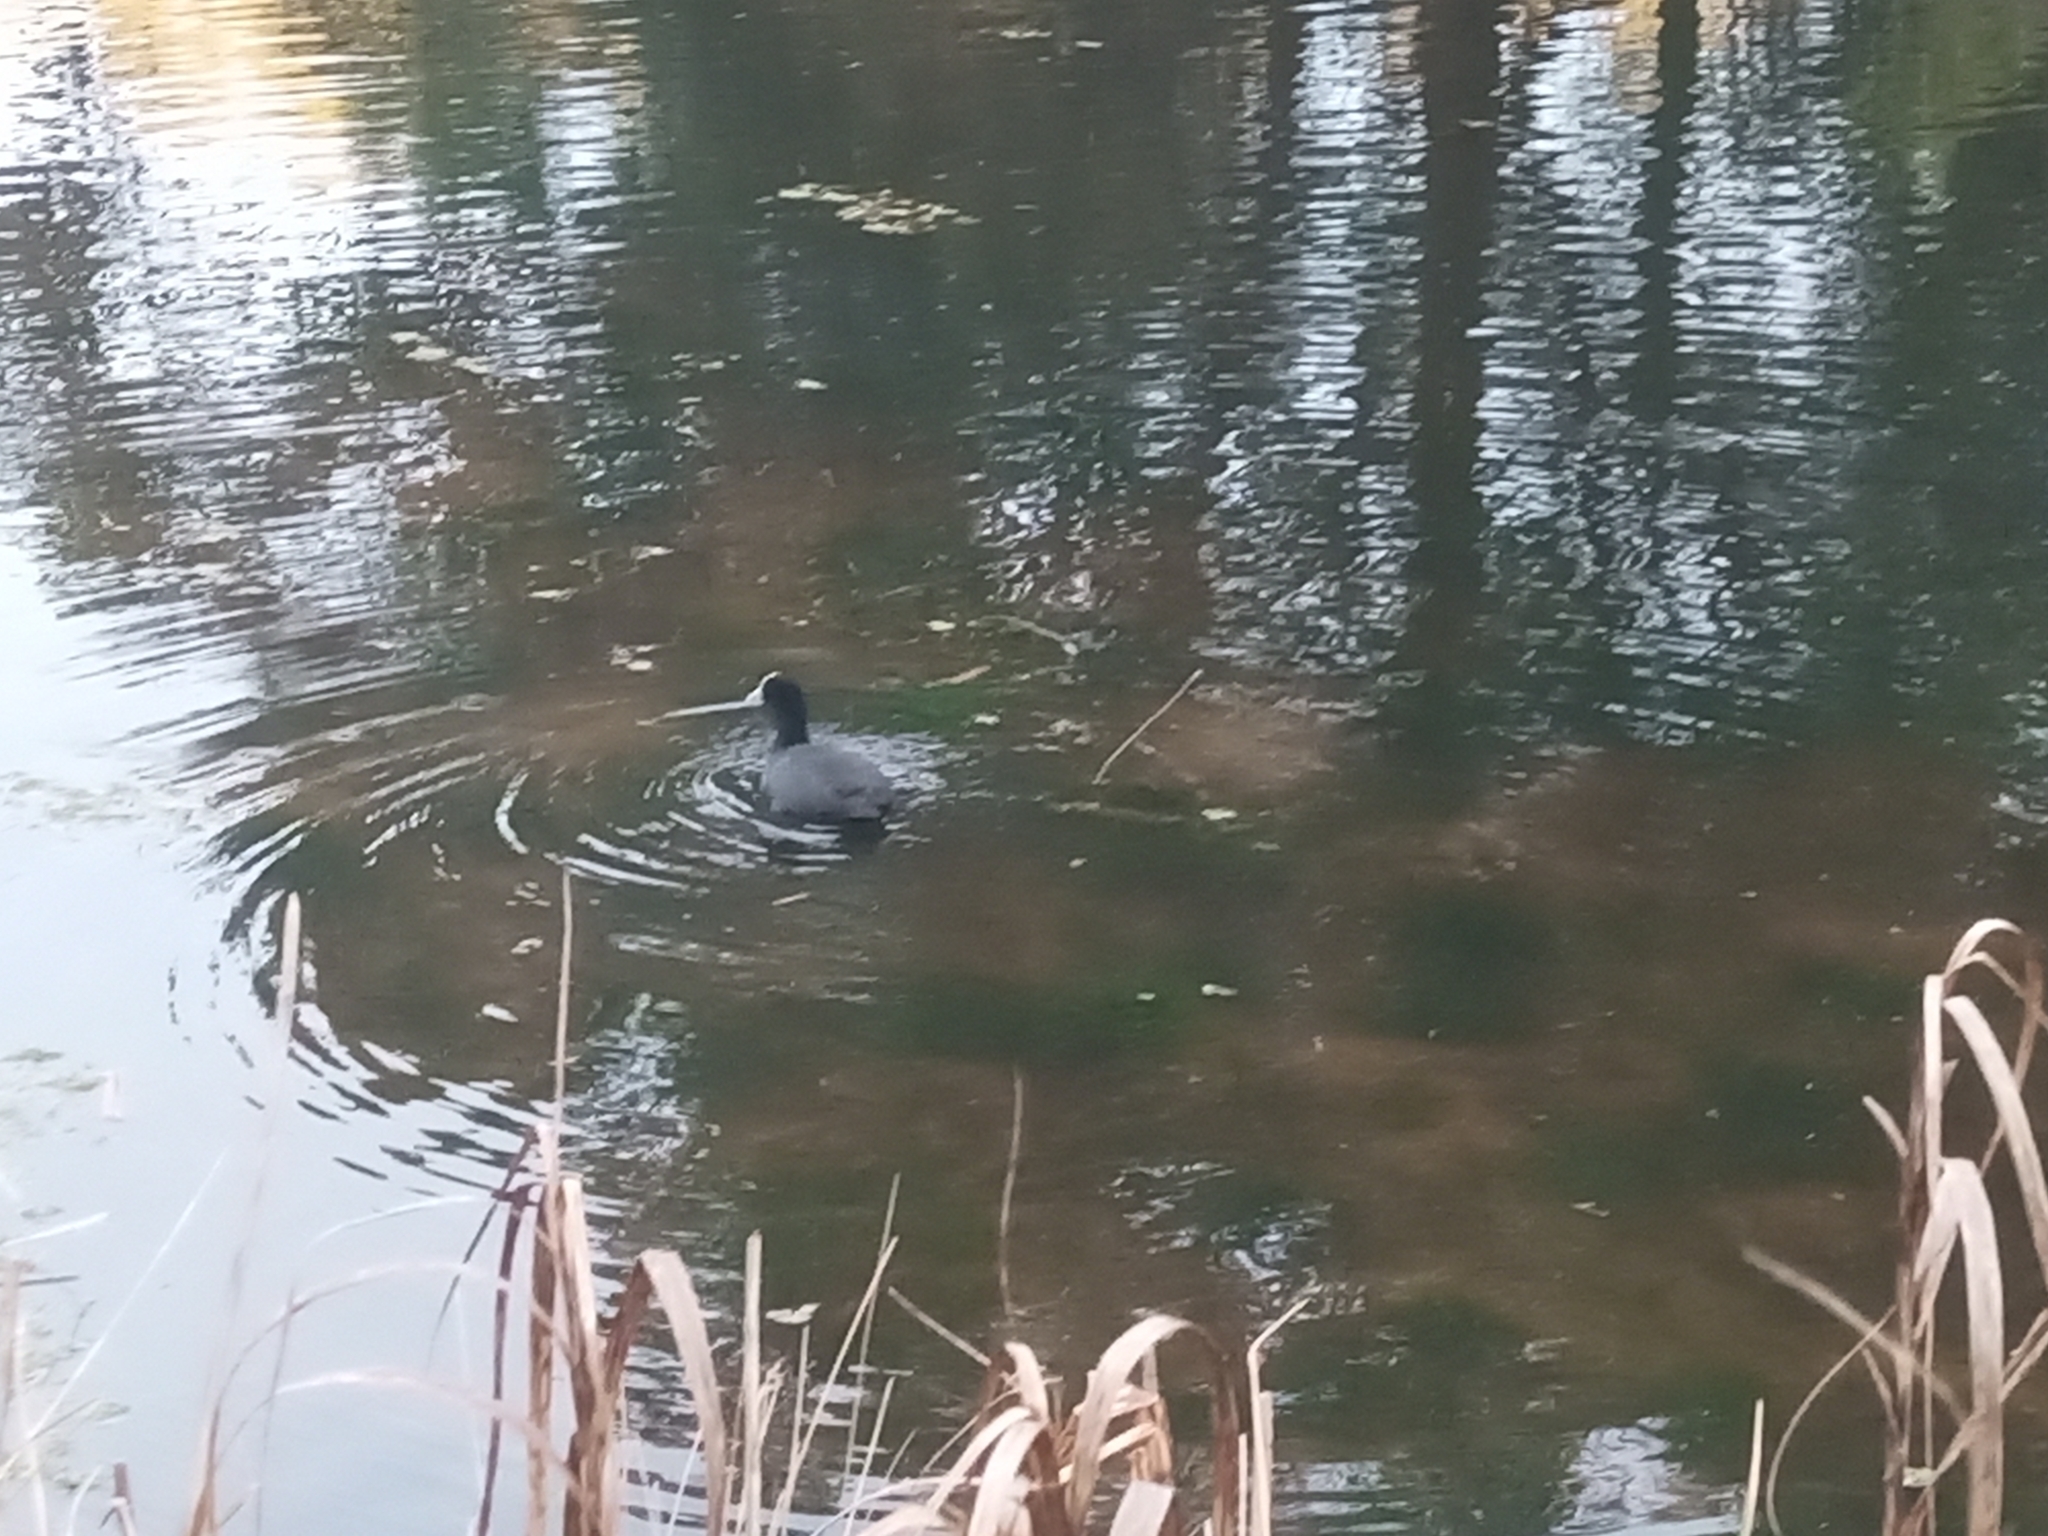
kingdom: Animalia
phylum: Chordata
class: Aves
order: Gruiformes
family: Rallidae
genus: Fulica
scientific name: Fulica atra
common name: Eurasian coot
